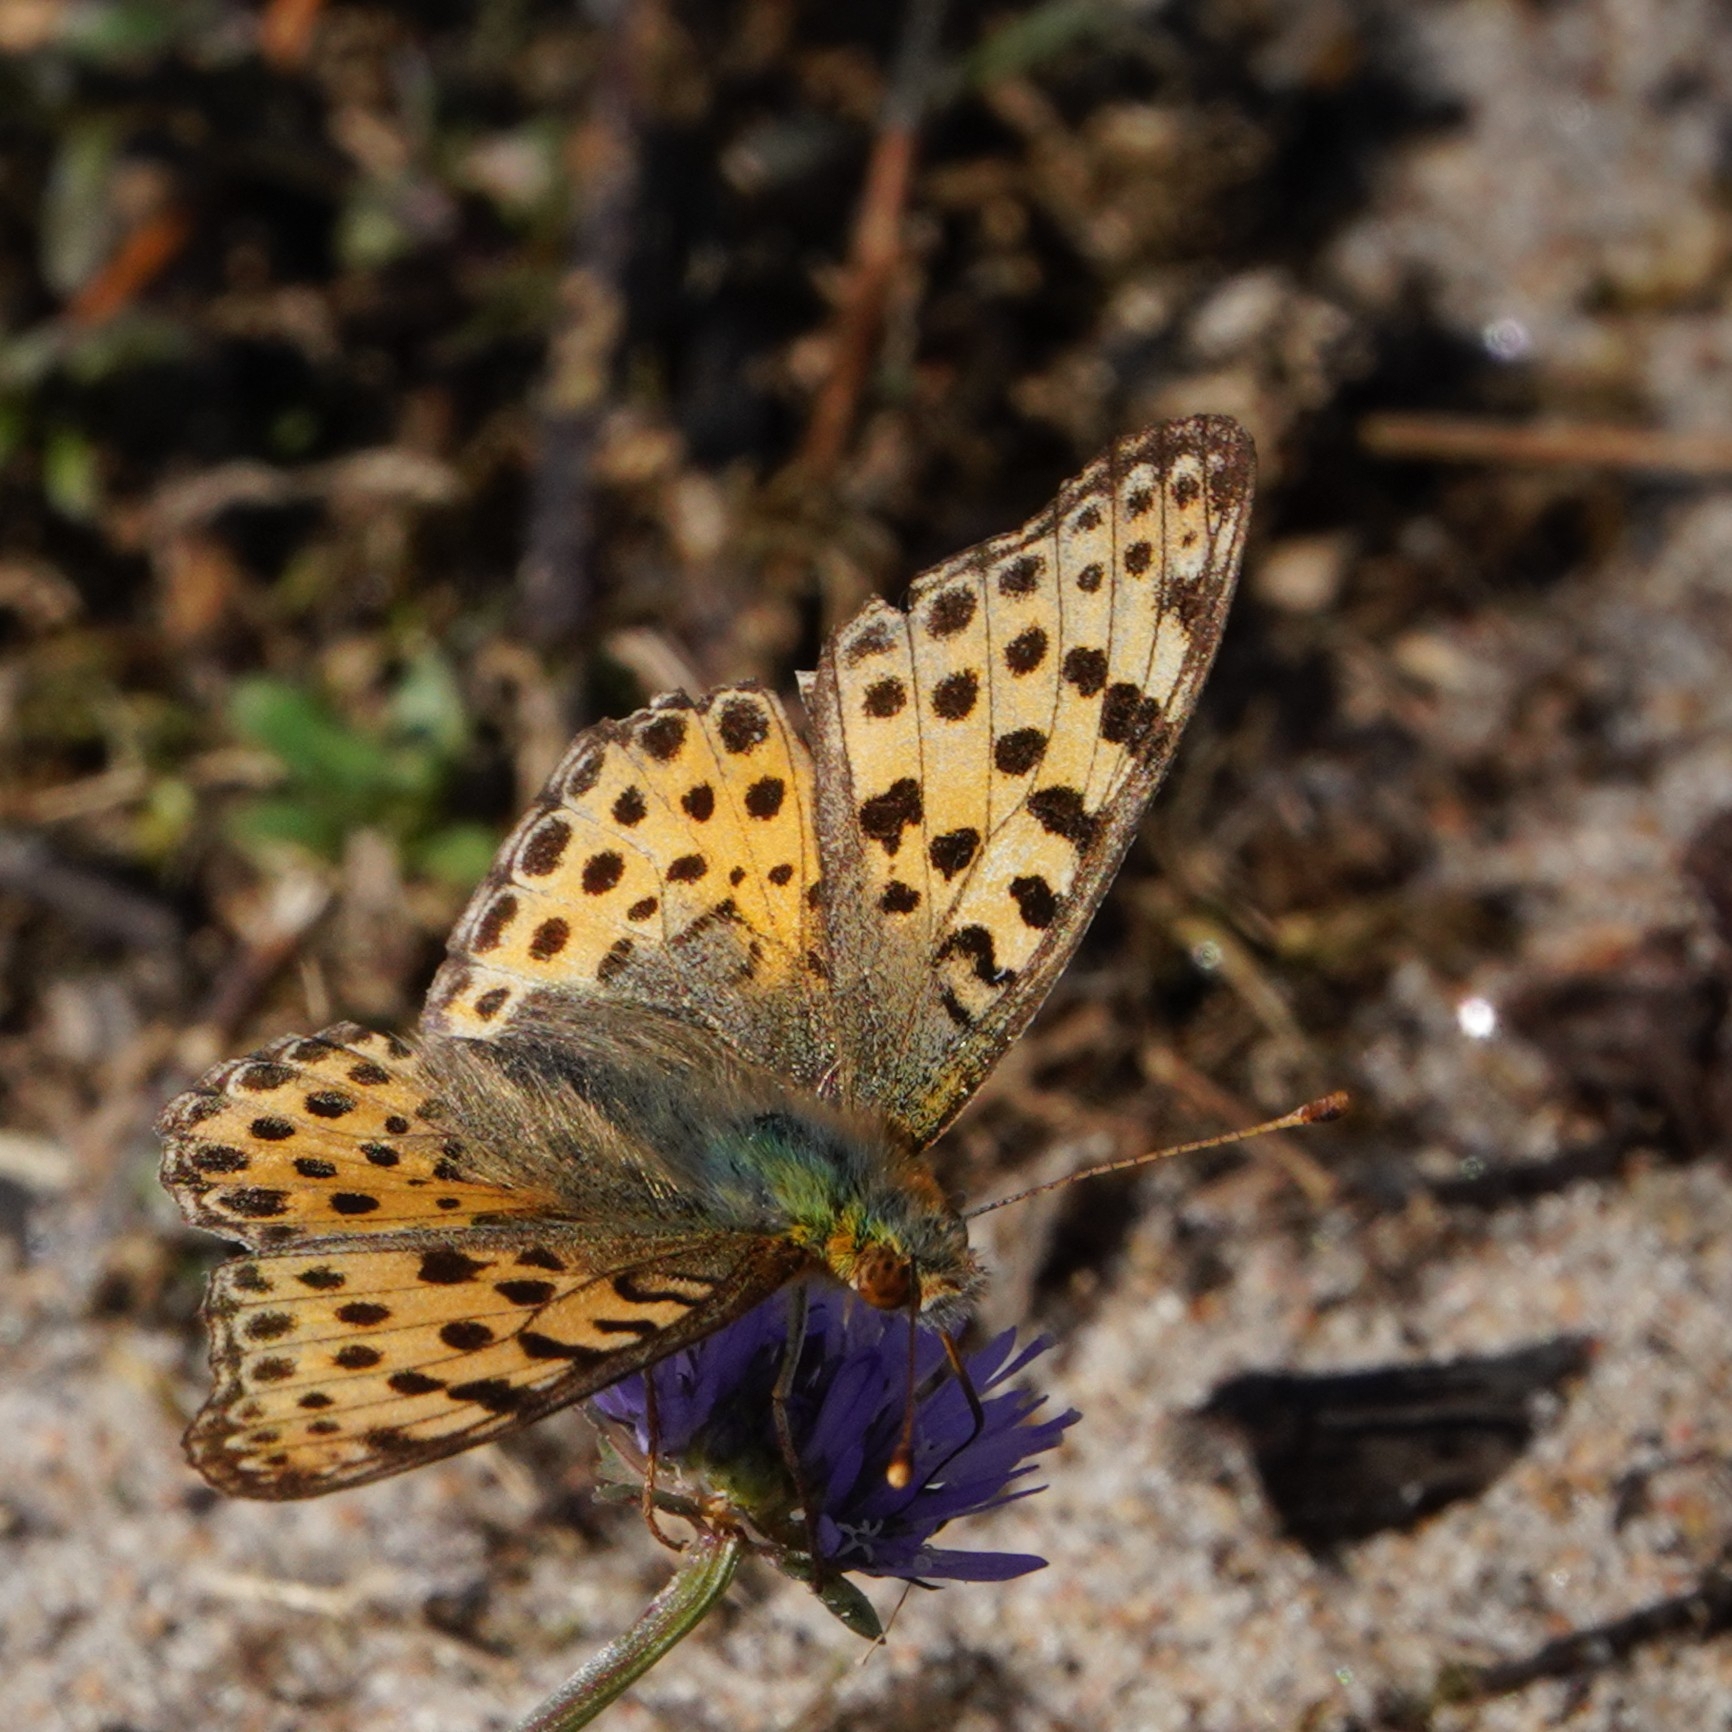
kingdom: Animalia
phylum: Arthropoda
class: Insecta
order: Lepidoptera
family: Nymphalidae
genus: Issoria
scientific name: Issoria lathonia
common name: Queen of spain fritillary
